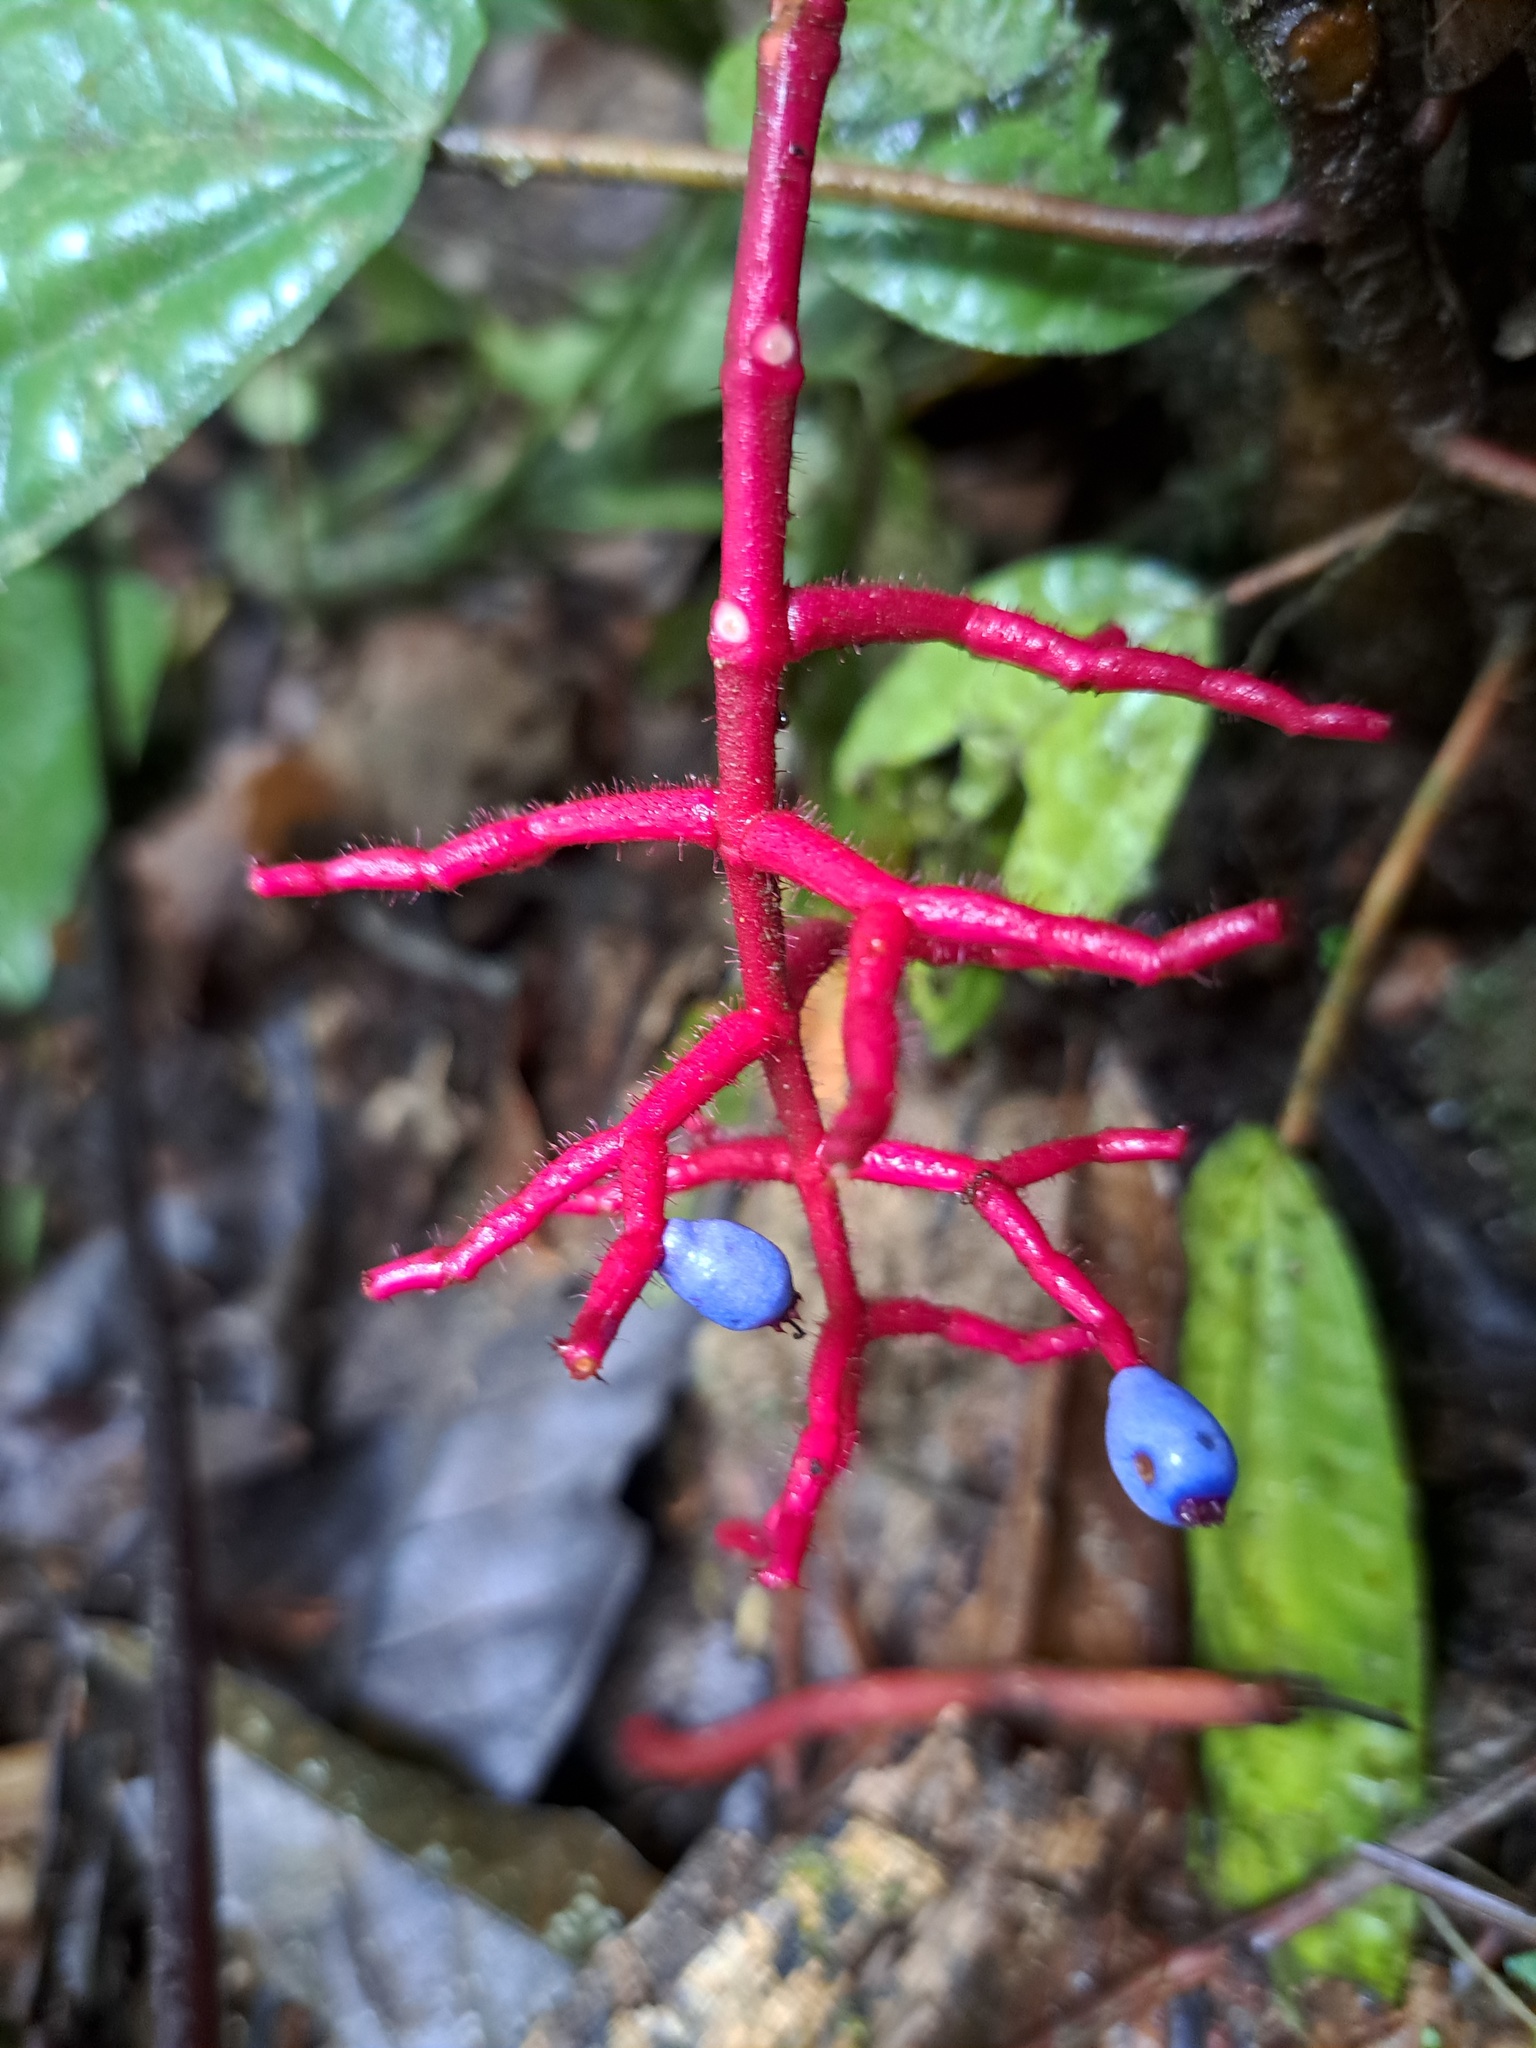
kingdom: Plantae
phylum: Tracheophyta
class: Magnoliopsida
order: Myrtales
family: Melastomataceae
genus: Miconia
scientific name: Miconia procumbens
